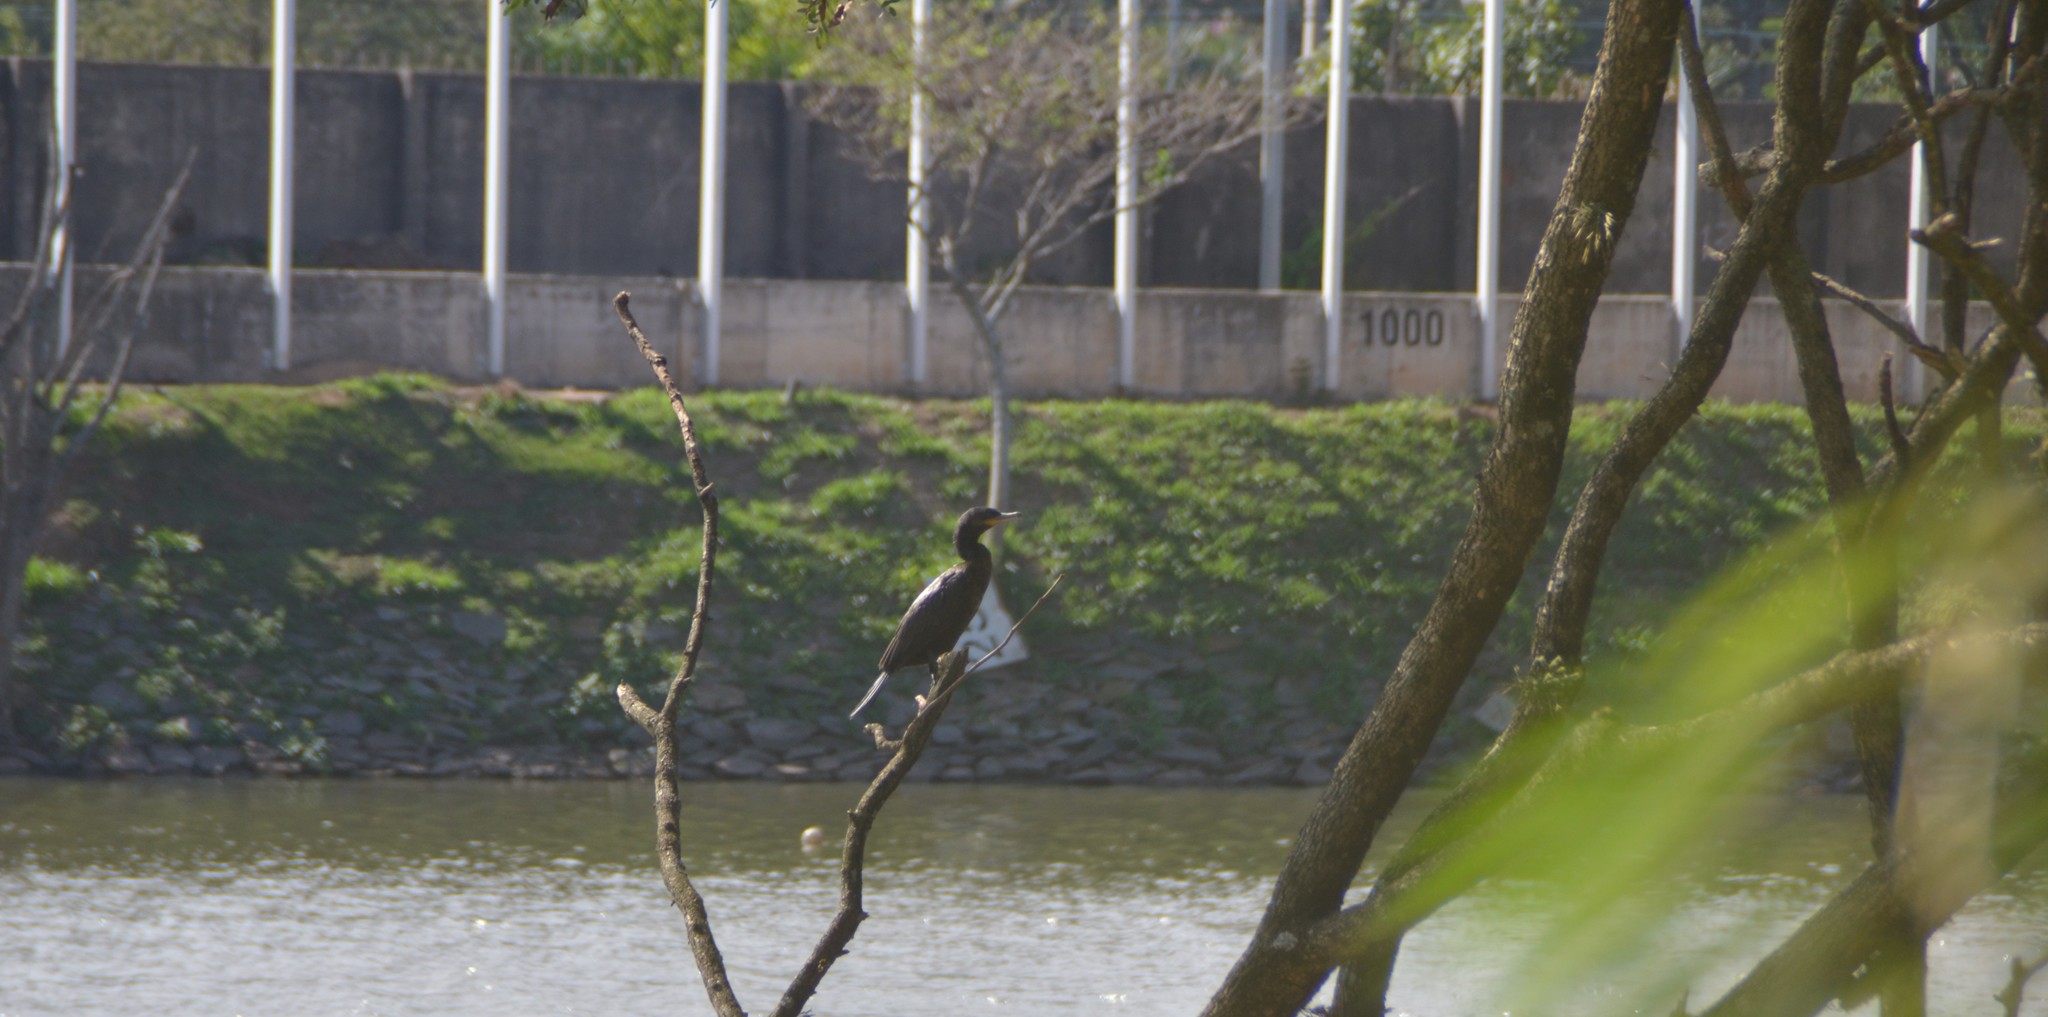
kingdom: Animalia
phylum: Chordata
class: Aves
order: Suliformes
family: Phalacrocoracidae
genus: Phalacrocorax
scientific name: Phalacrocorax brasilianus
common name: Neotropic cormorant
